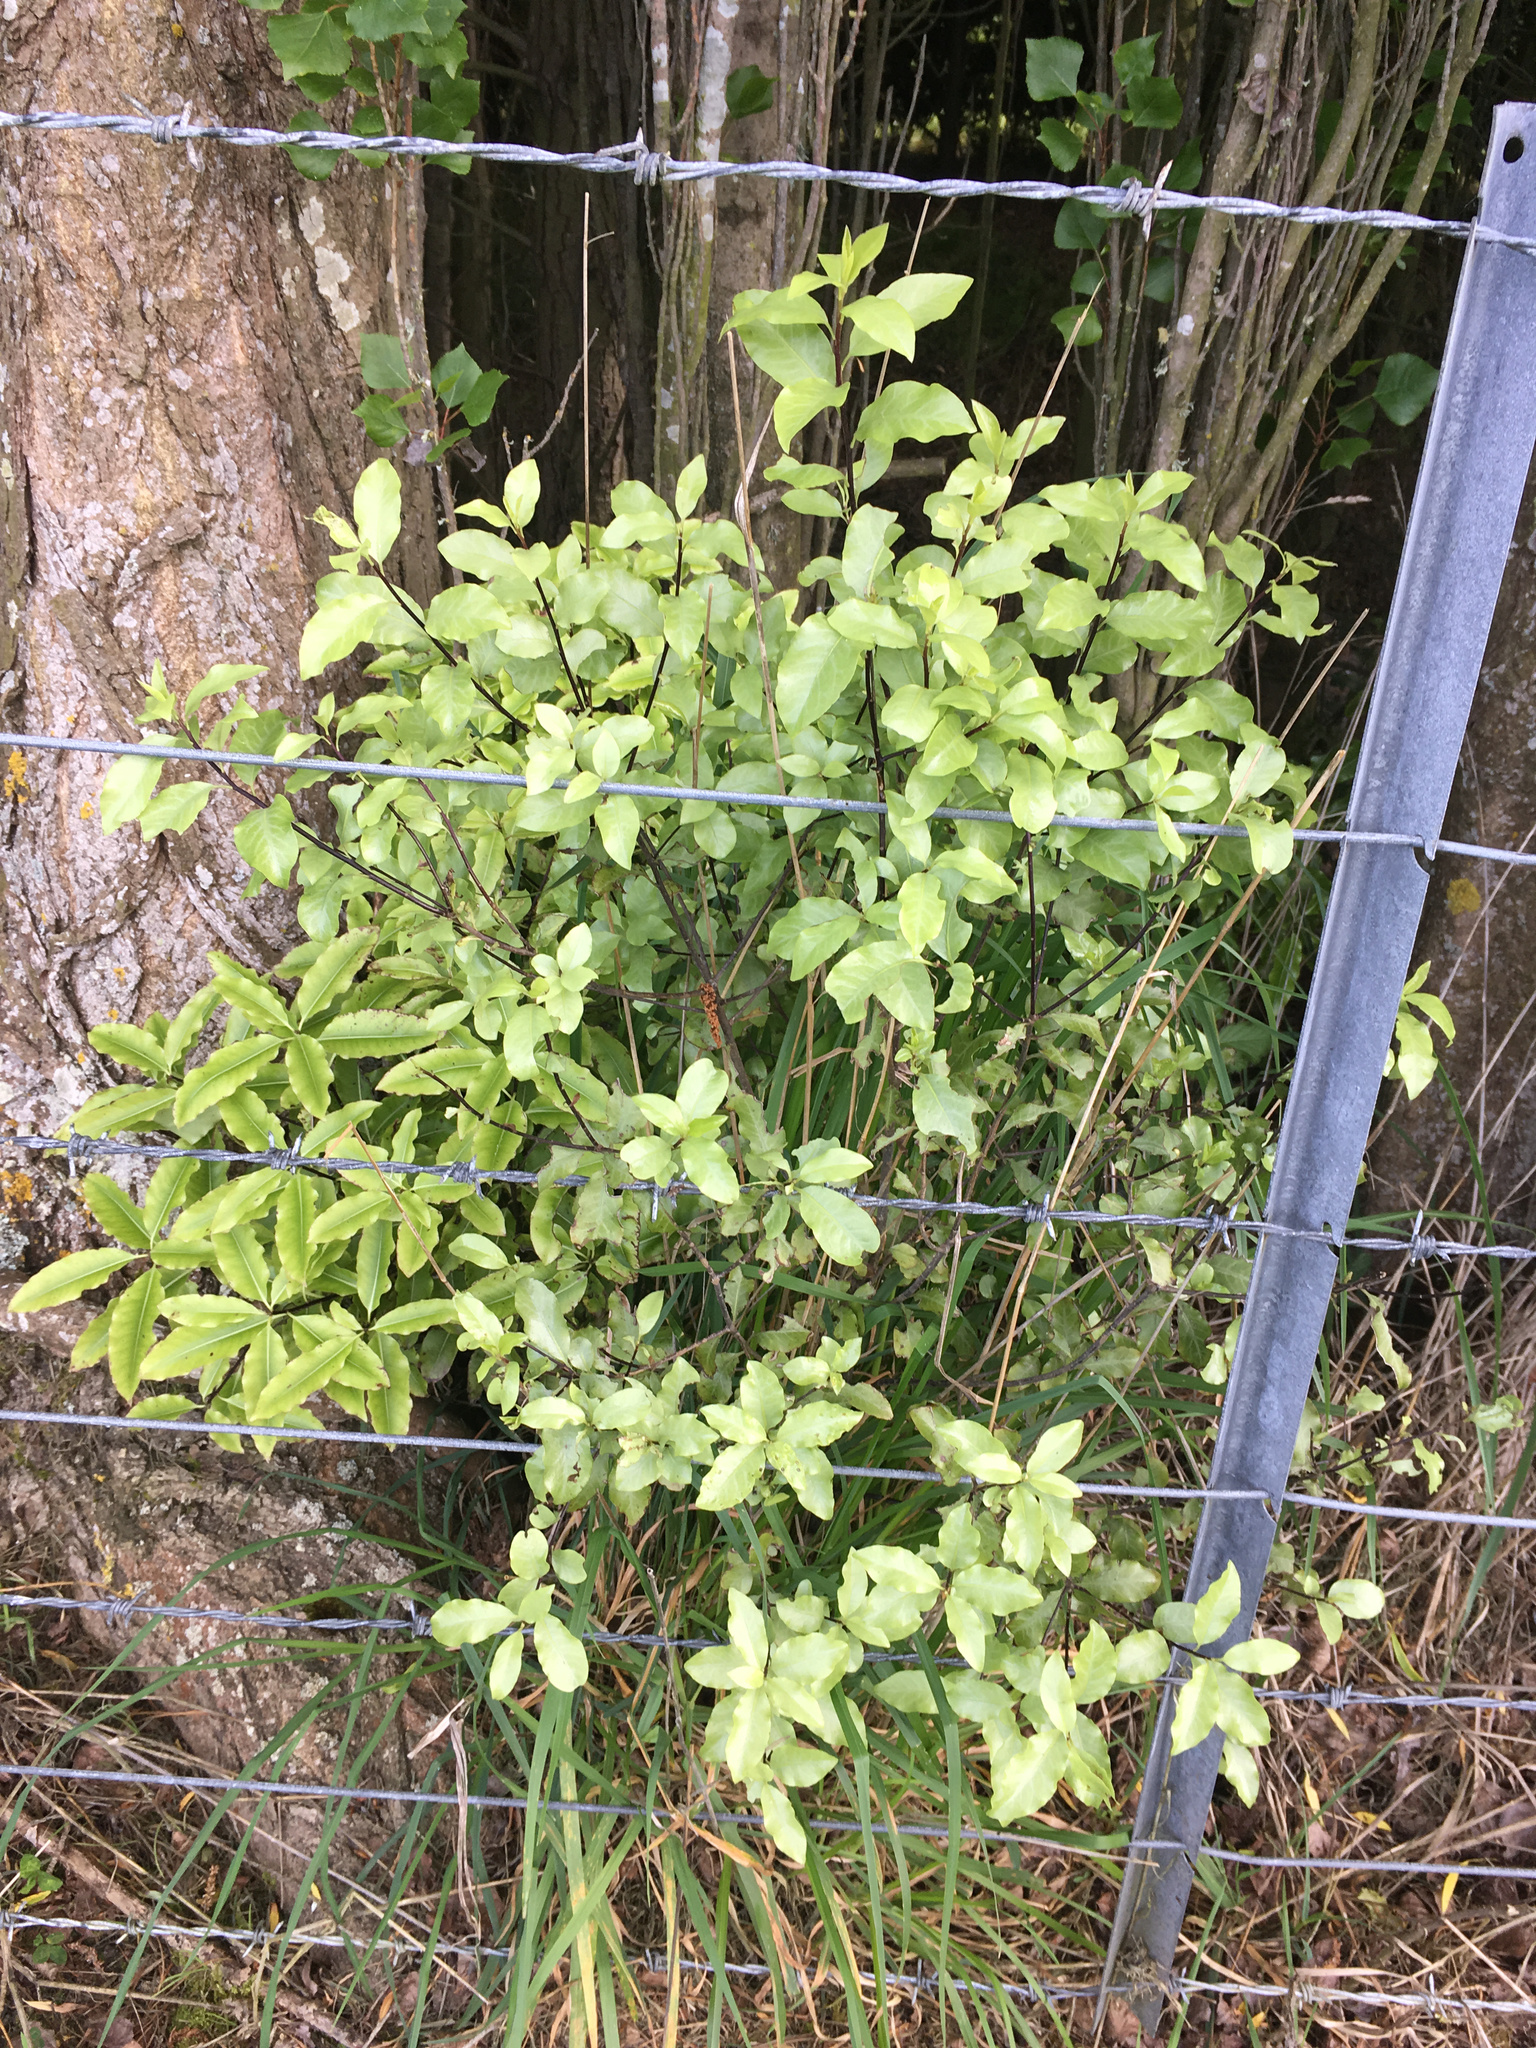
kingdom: Plantae
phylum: Tracheophyta
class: Magnoliopsida
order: Apiales
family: Pittosporaceae
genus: Pittosporum
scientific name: Pittosporum tenuifolium
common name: Kohuhu
